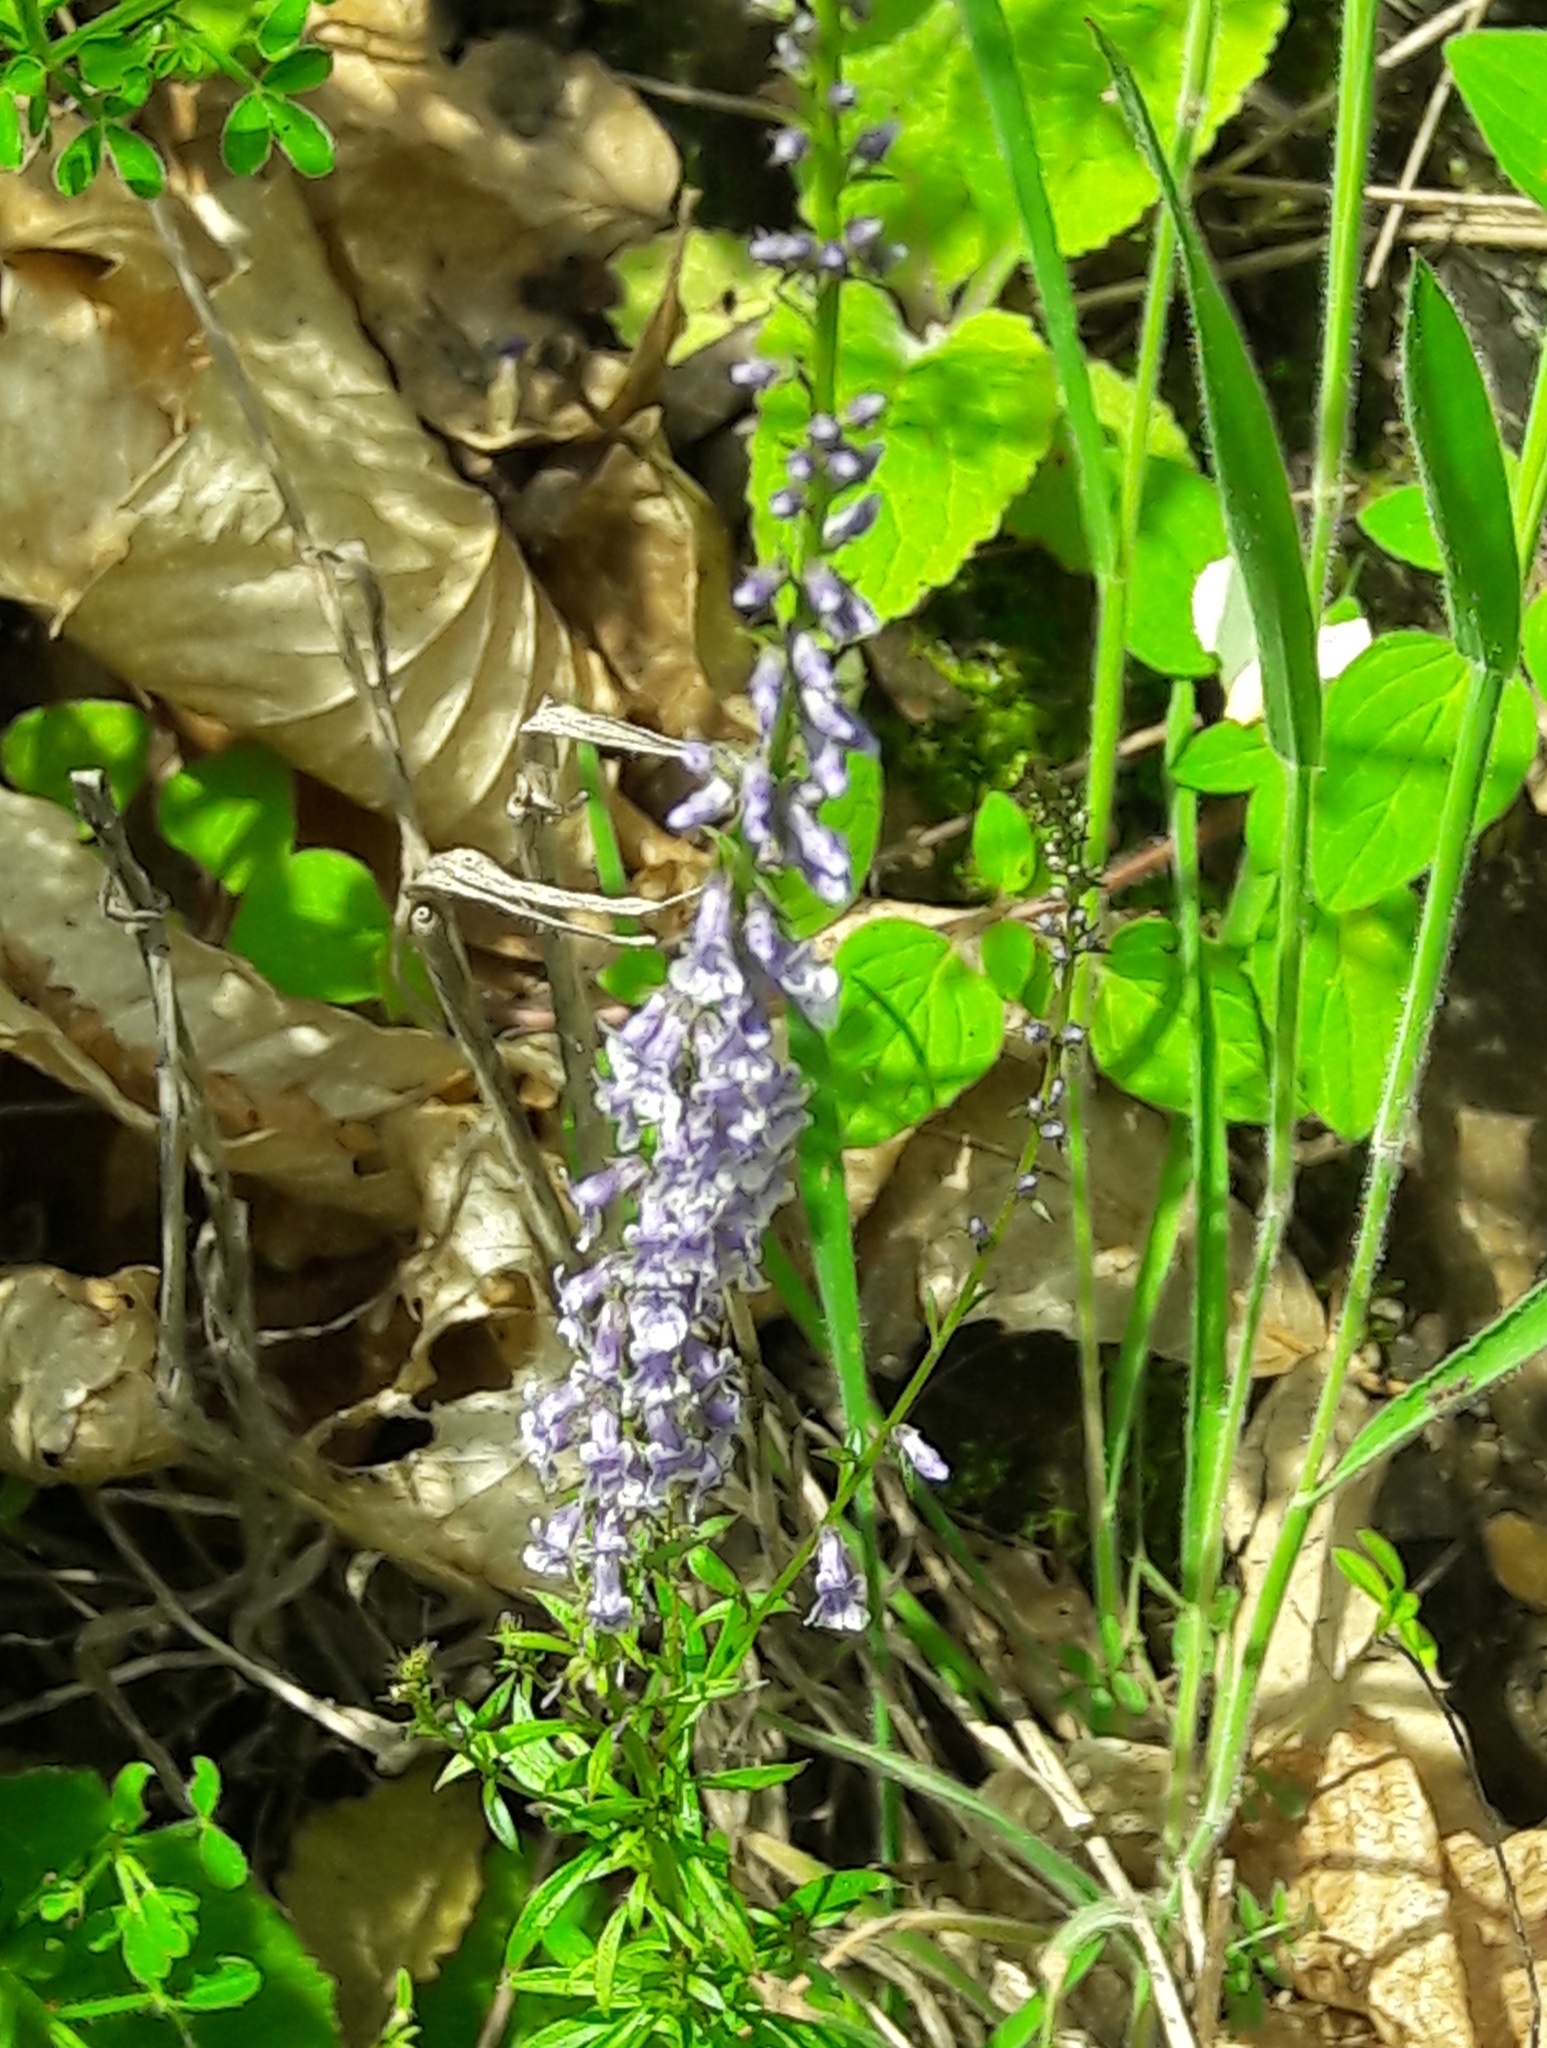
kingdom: Plantae
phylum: Tracheophyta
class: Magnoliopsida
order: Lamiales
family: Plantaginaceae
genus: Anarrhinum
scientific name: Anarrhinum bellidifolium
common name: Daisy-leaved toadflax
